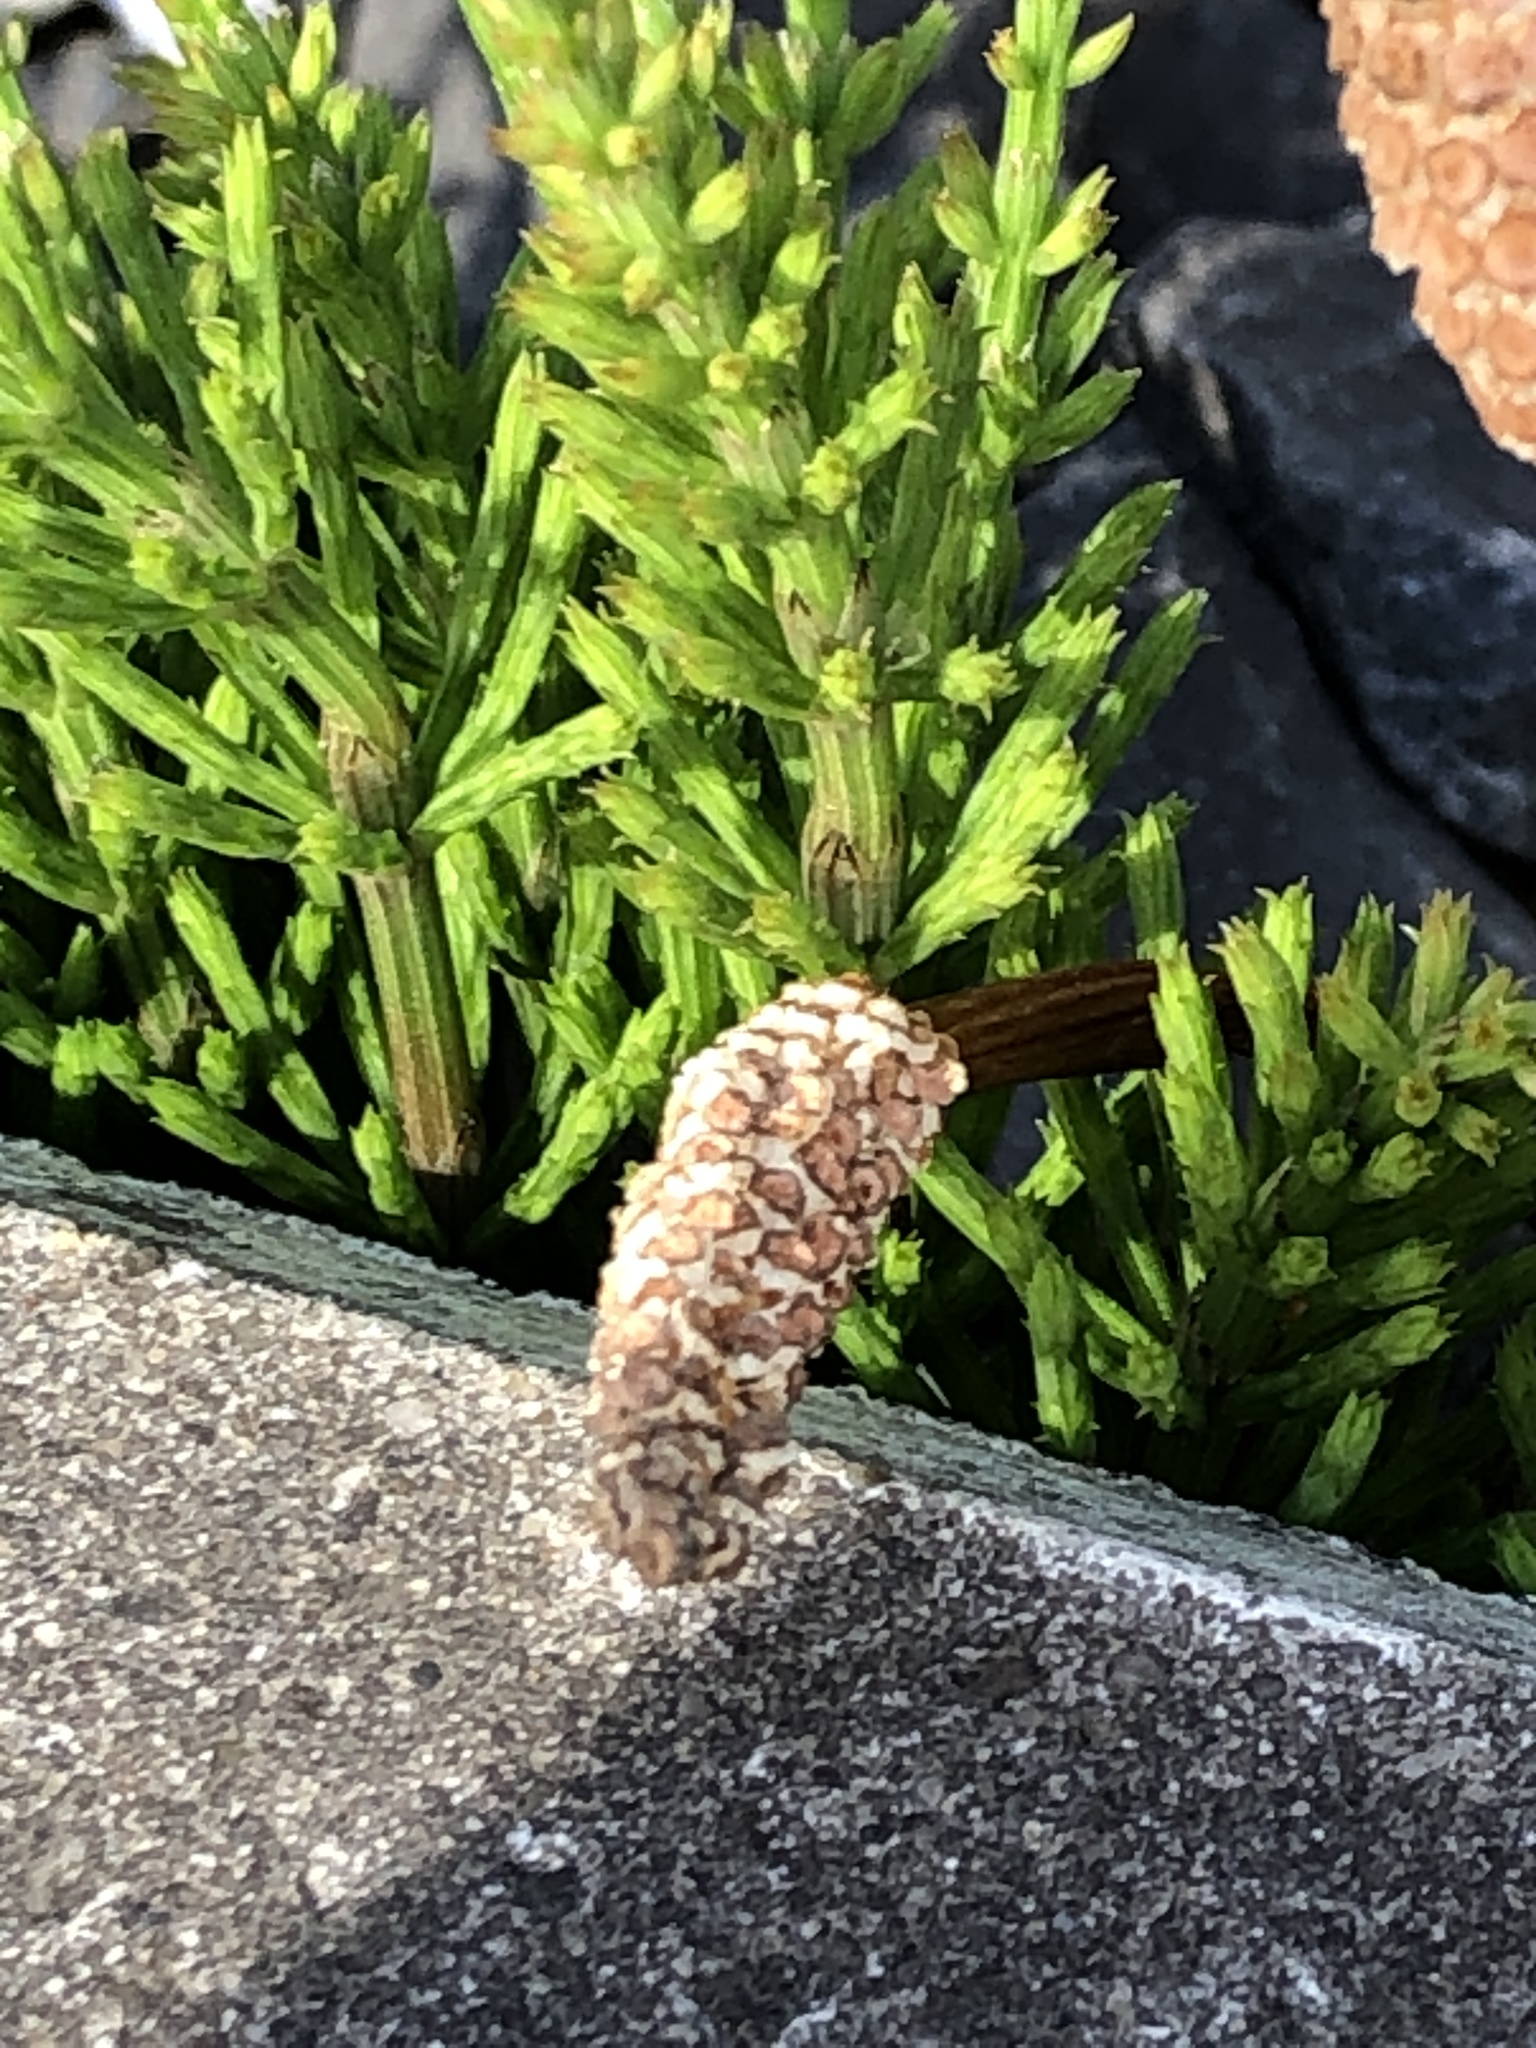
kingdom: Plantae
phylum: Tracheophyta
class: Polypodiopsida
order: Equisetales
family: Equisetaceae
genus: Equisetum
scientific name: Equisetum arvense
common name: Field horsetail
